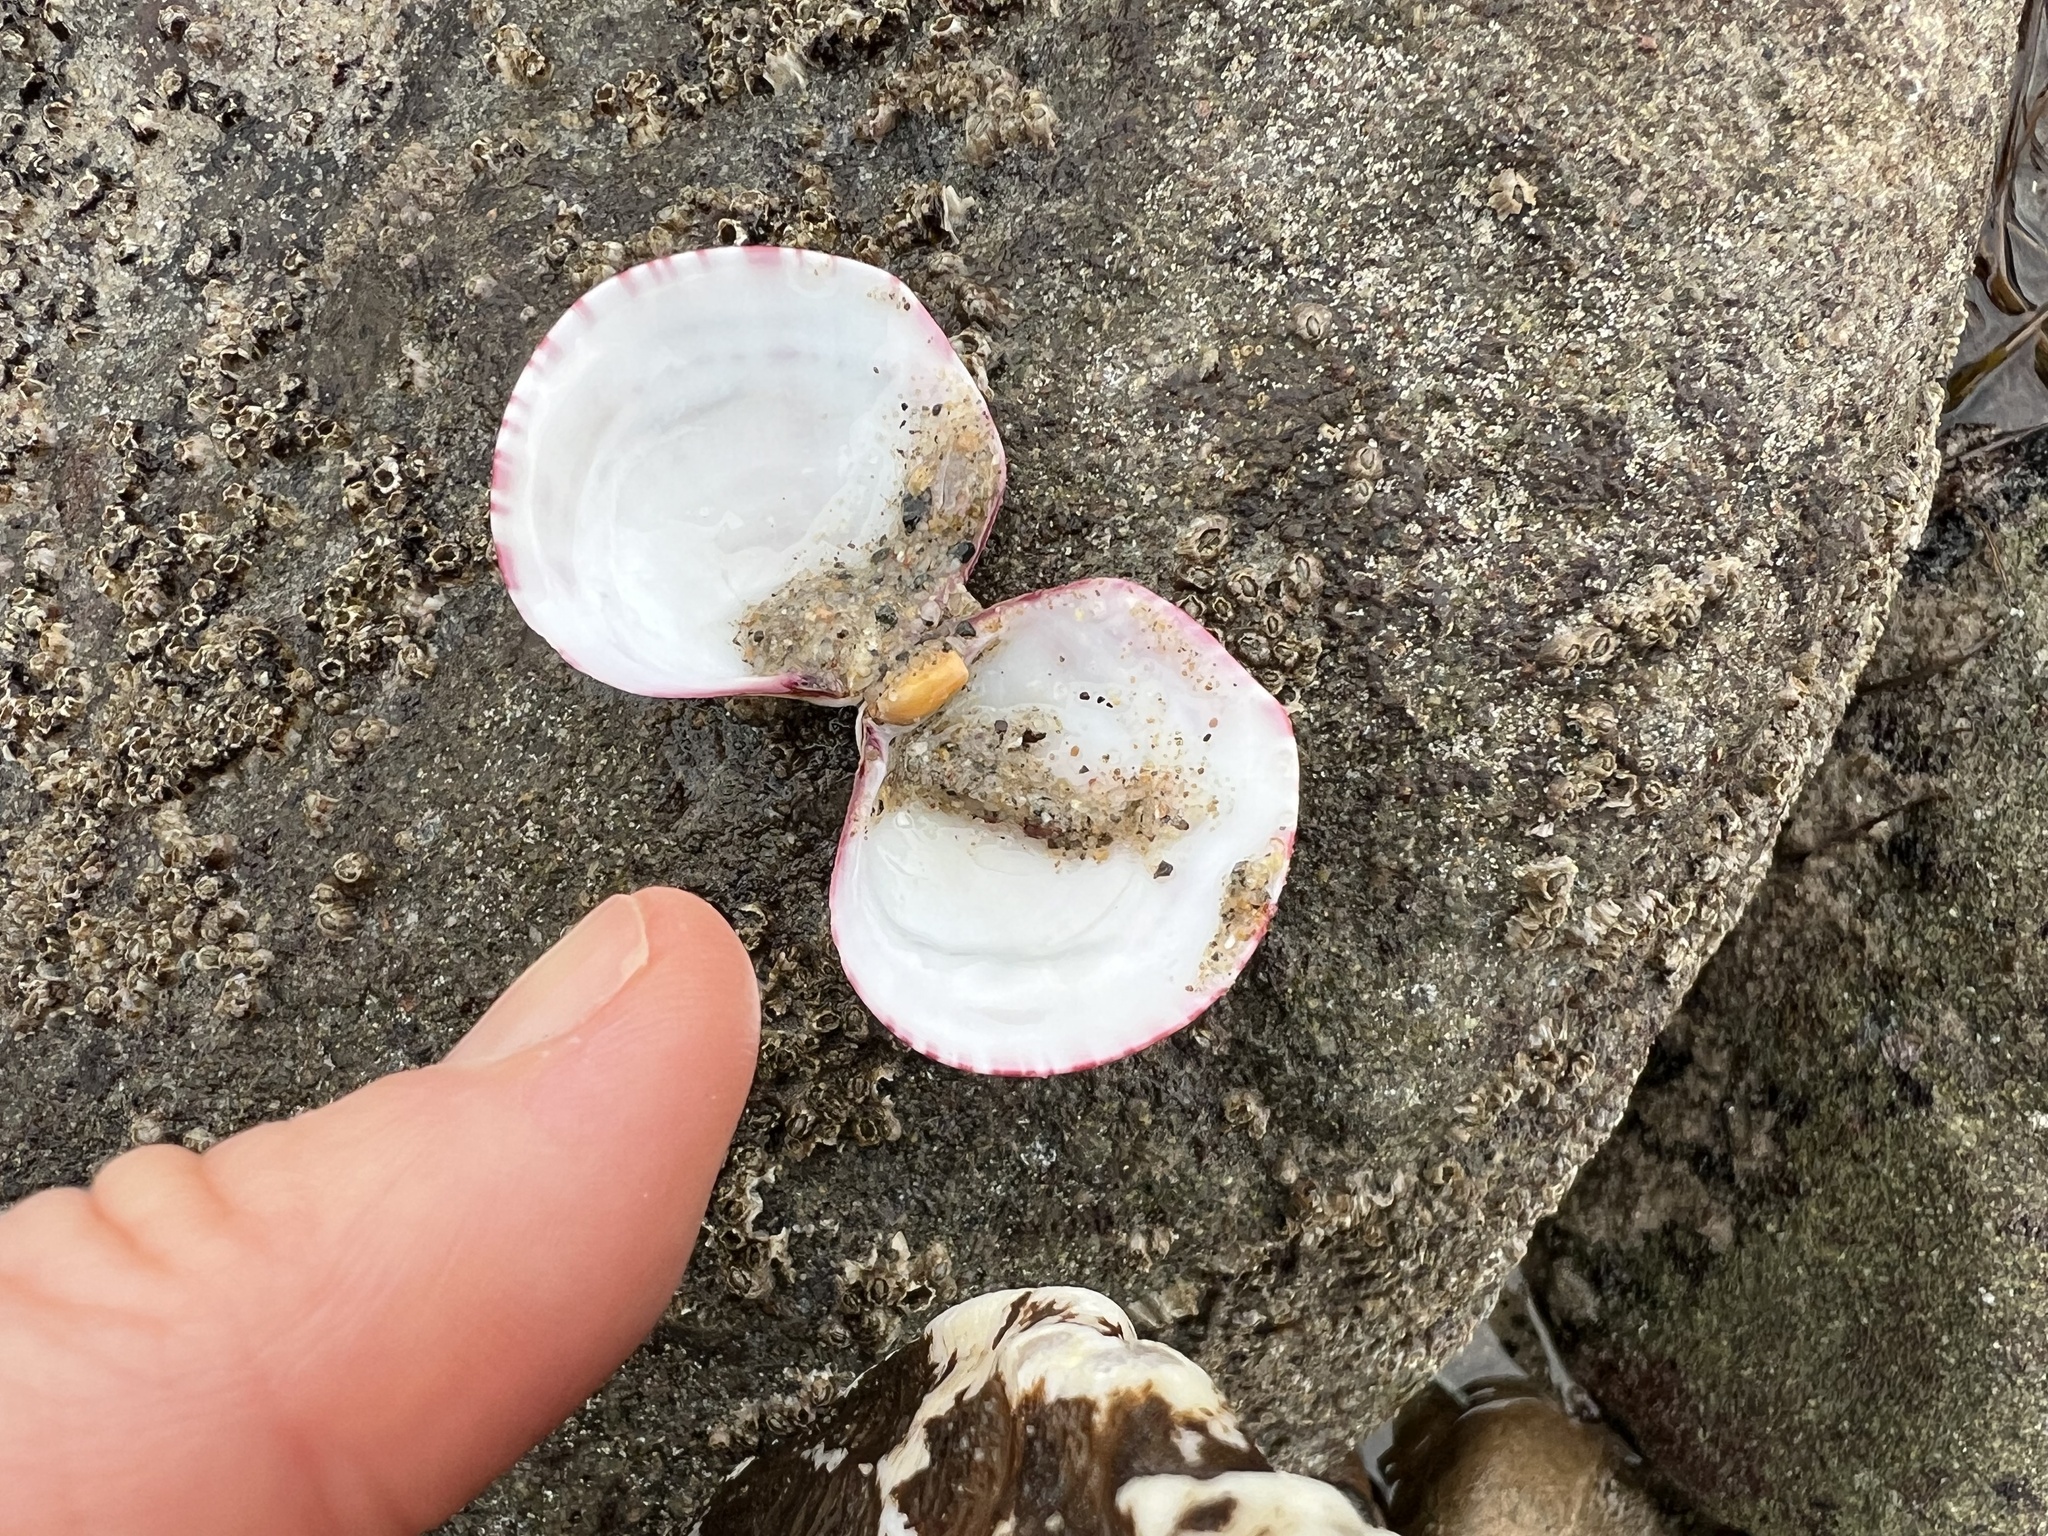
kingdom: Animalia
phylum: Mollusca
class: Bivalvia
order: Cardiida
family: Semelidae
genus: Semele
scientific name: Semele rubropicta
